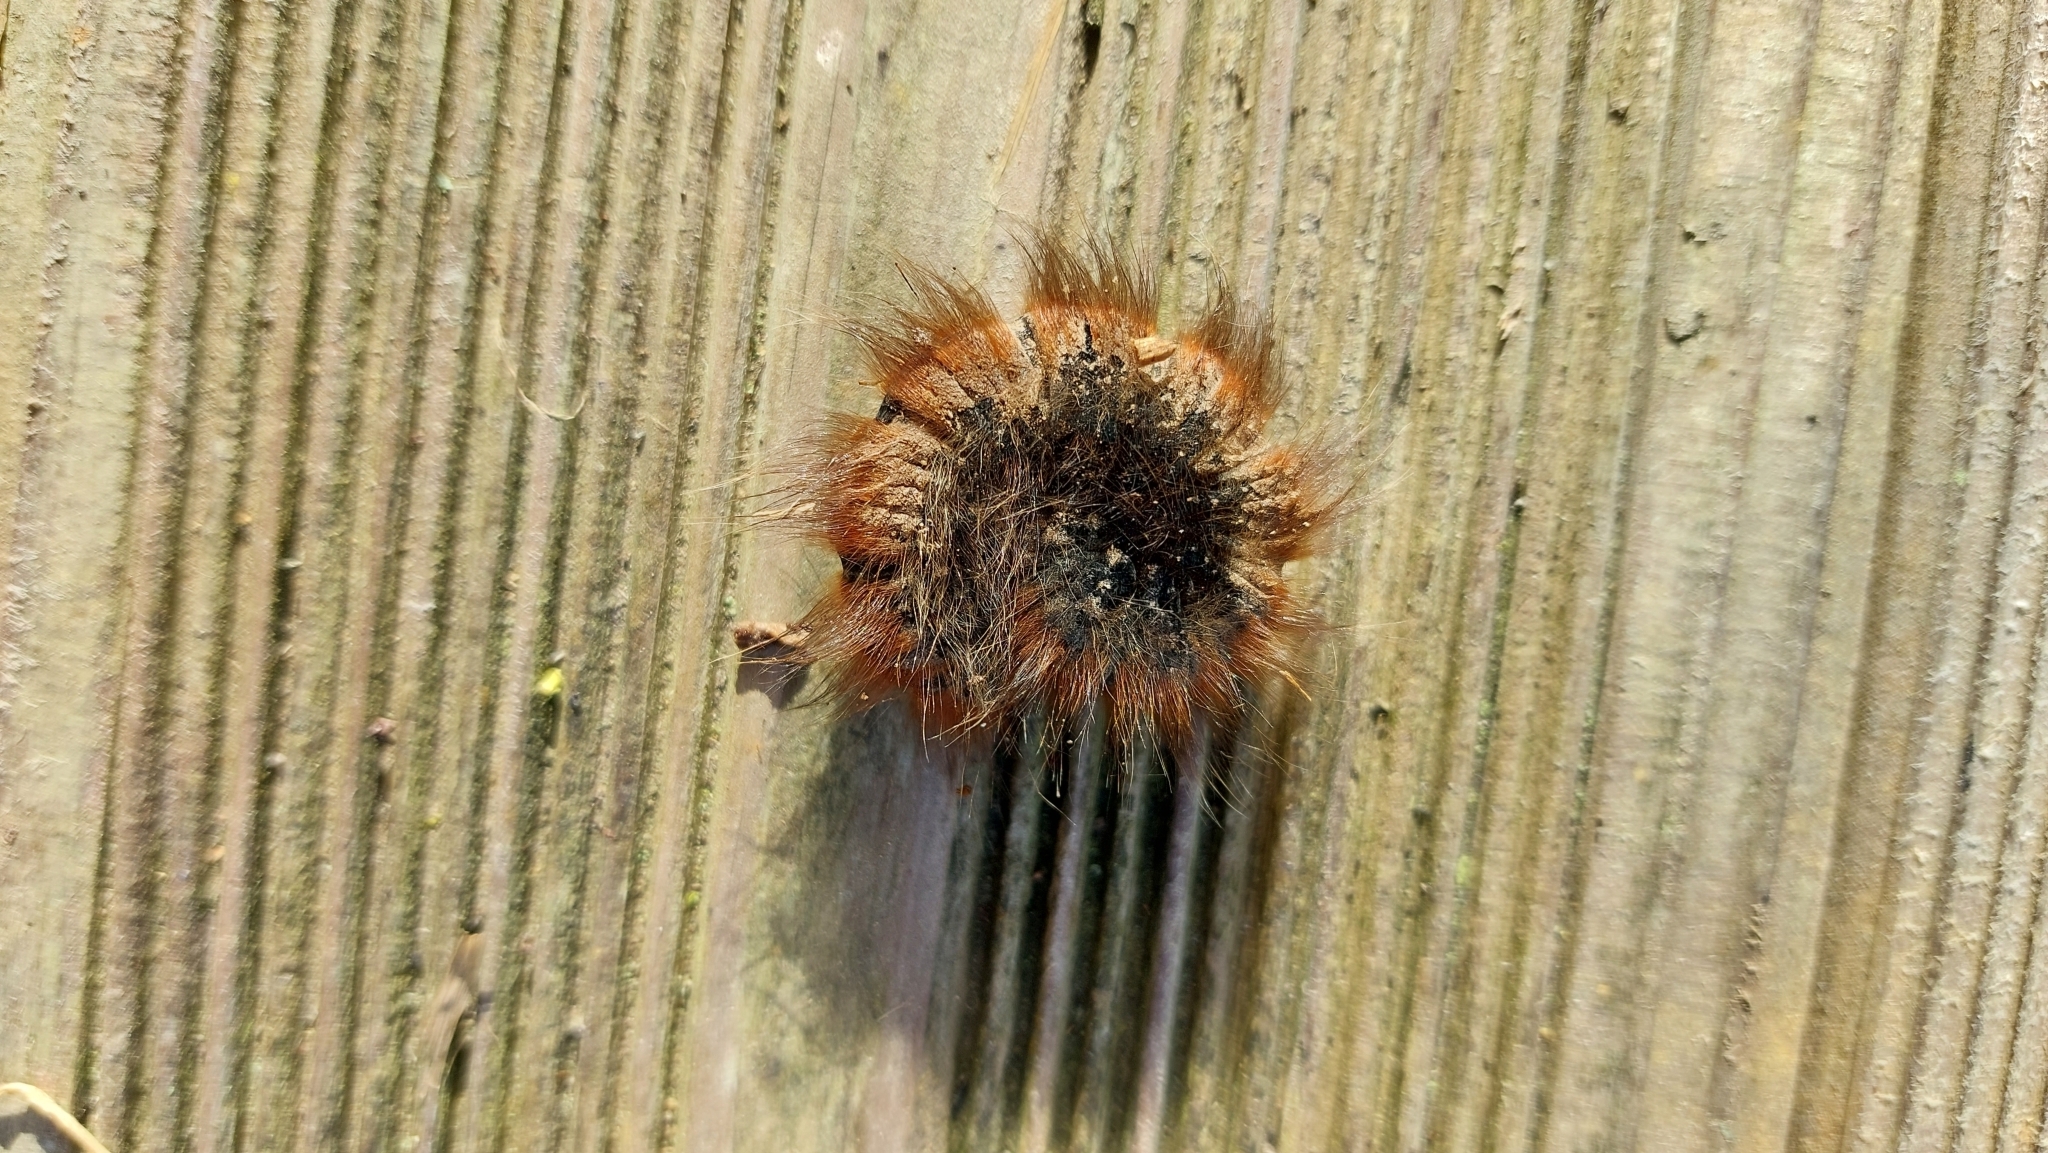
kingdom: Animalia
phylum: Arthropoda
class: Insecta
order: Lepidoptera
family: Lasiocampidae
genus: Macrothylacia
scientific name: Macrothylacia rubi
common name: Fox moth
